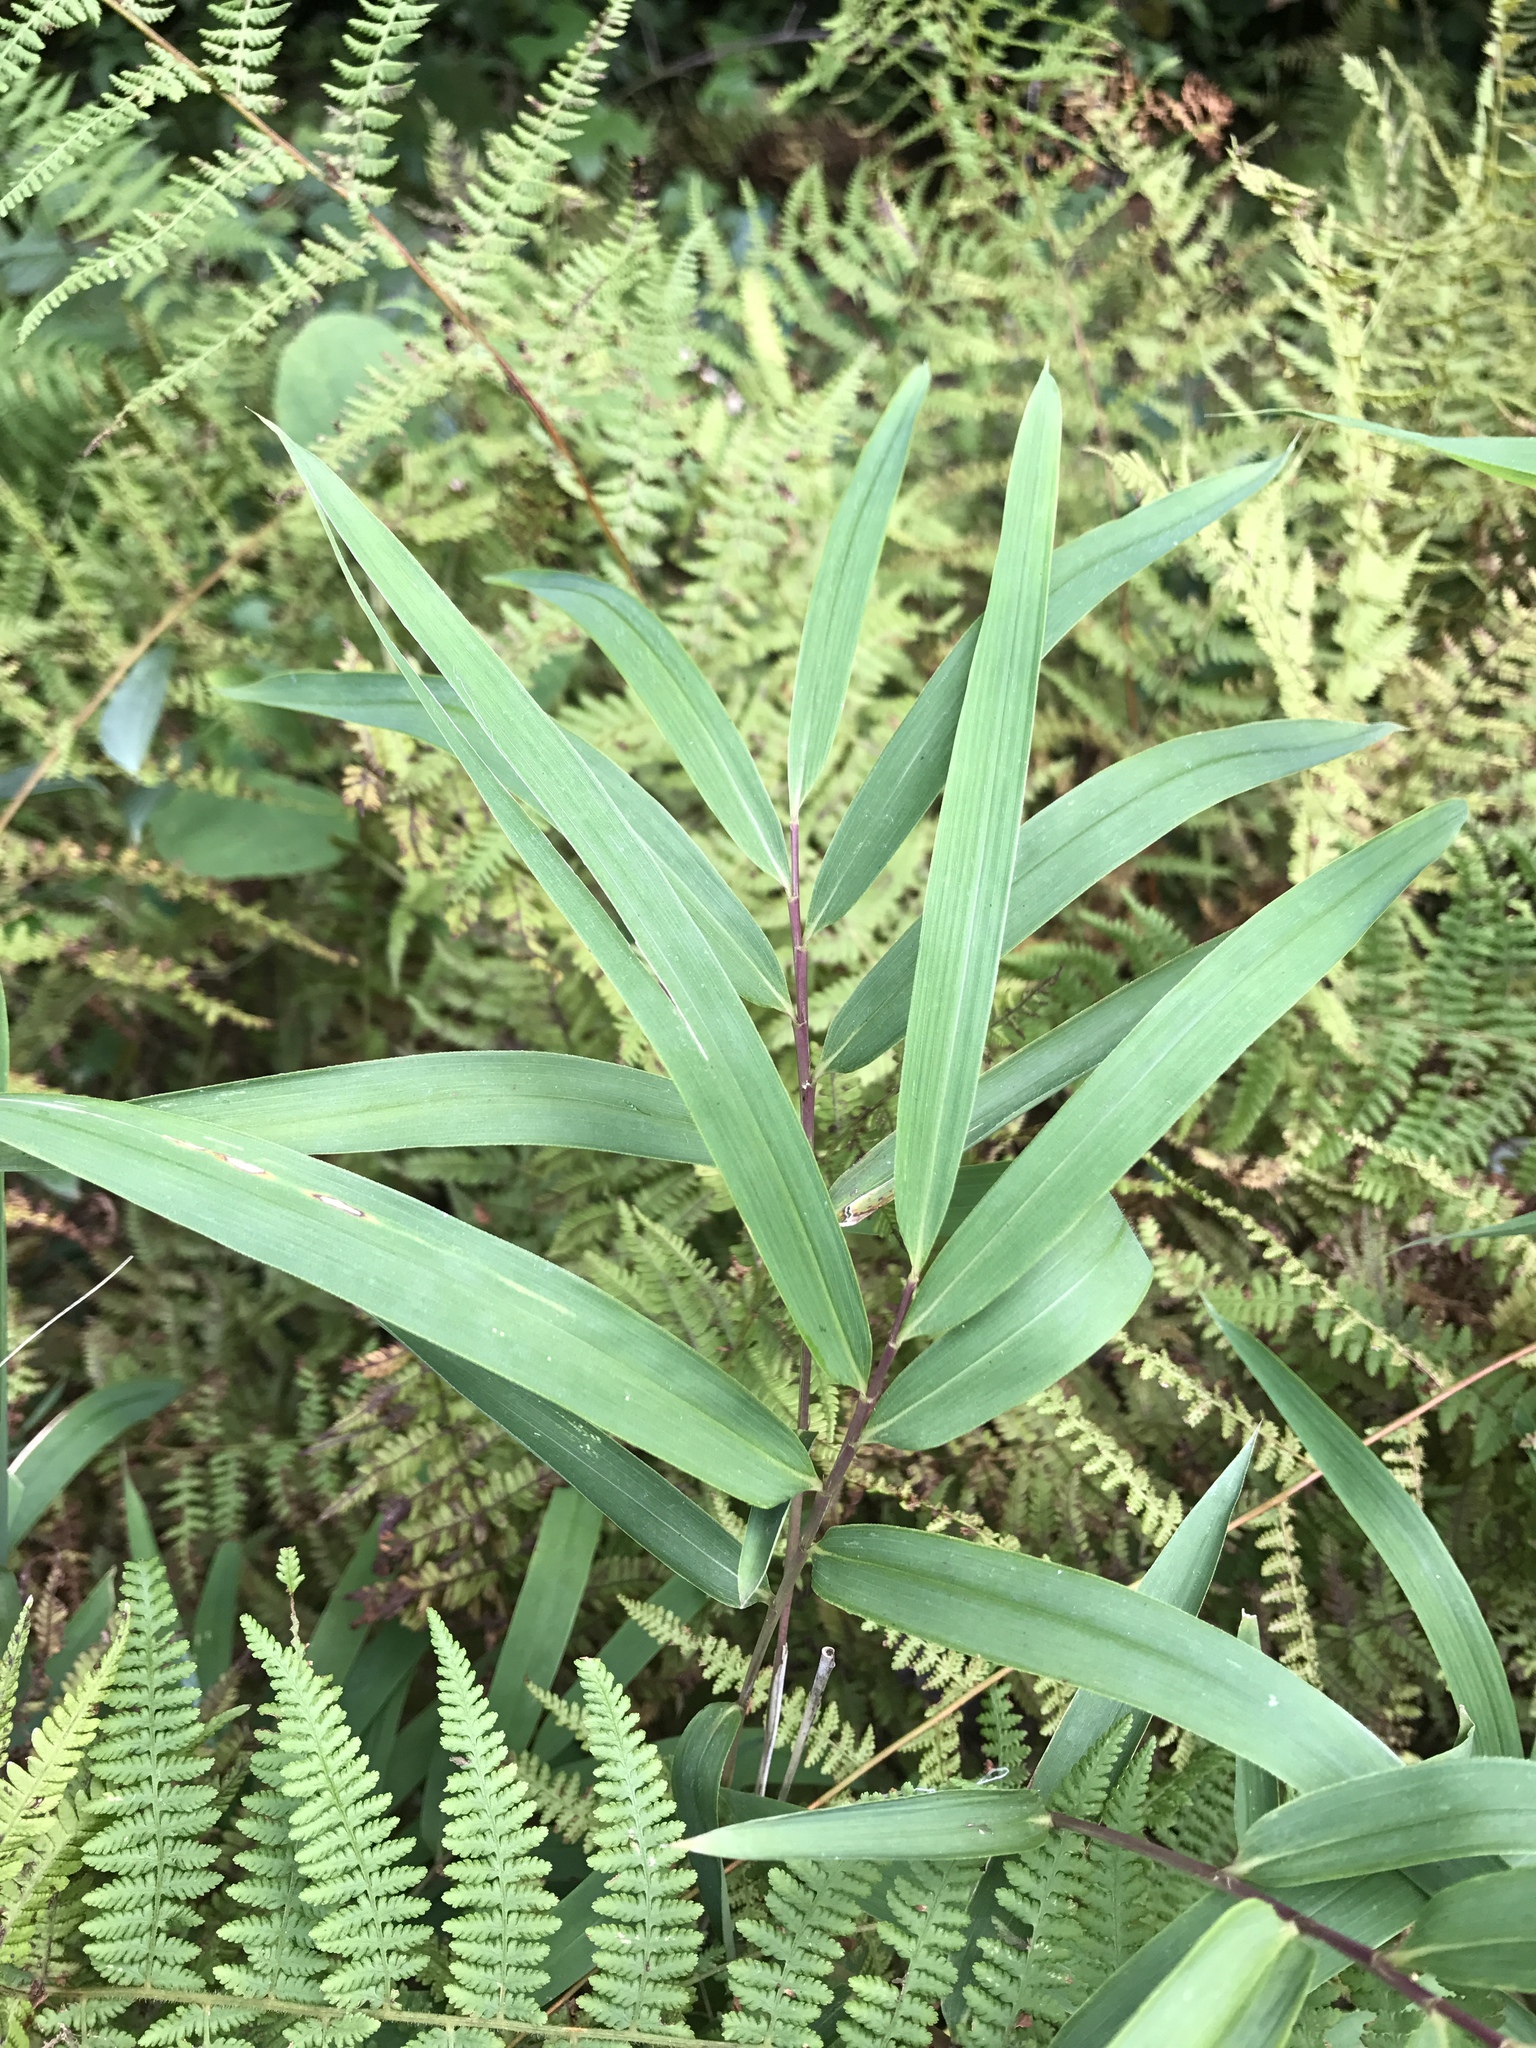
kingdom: Plantae
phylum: Tracheophyta
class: Liliopsida
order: Poales
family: Poaceae
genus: Arundinaria
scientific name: Arundinaria appalachiana
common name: Hill cane
